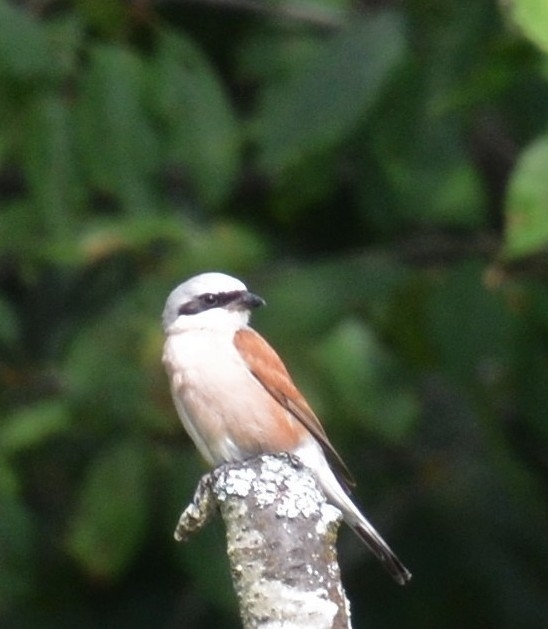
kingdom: Animalia
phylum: Chordata
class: Aves
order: Passeriformes
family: Laniidae
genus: Lanius
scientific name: Lanius collurio
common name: Red-backed shrike
